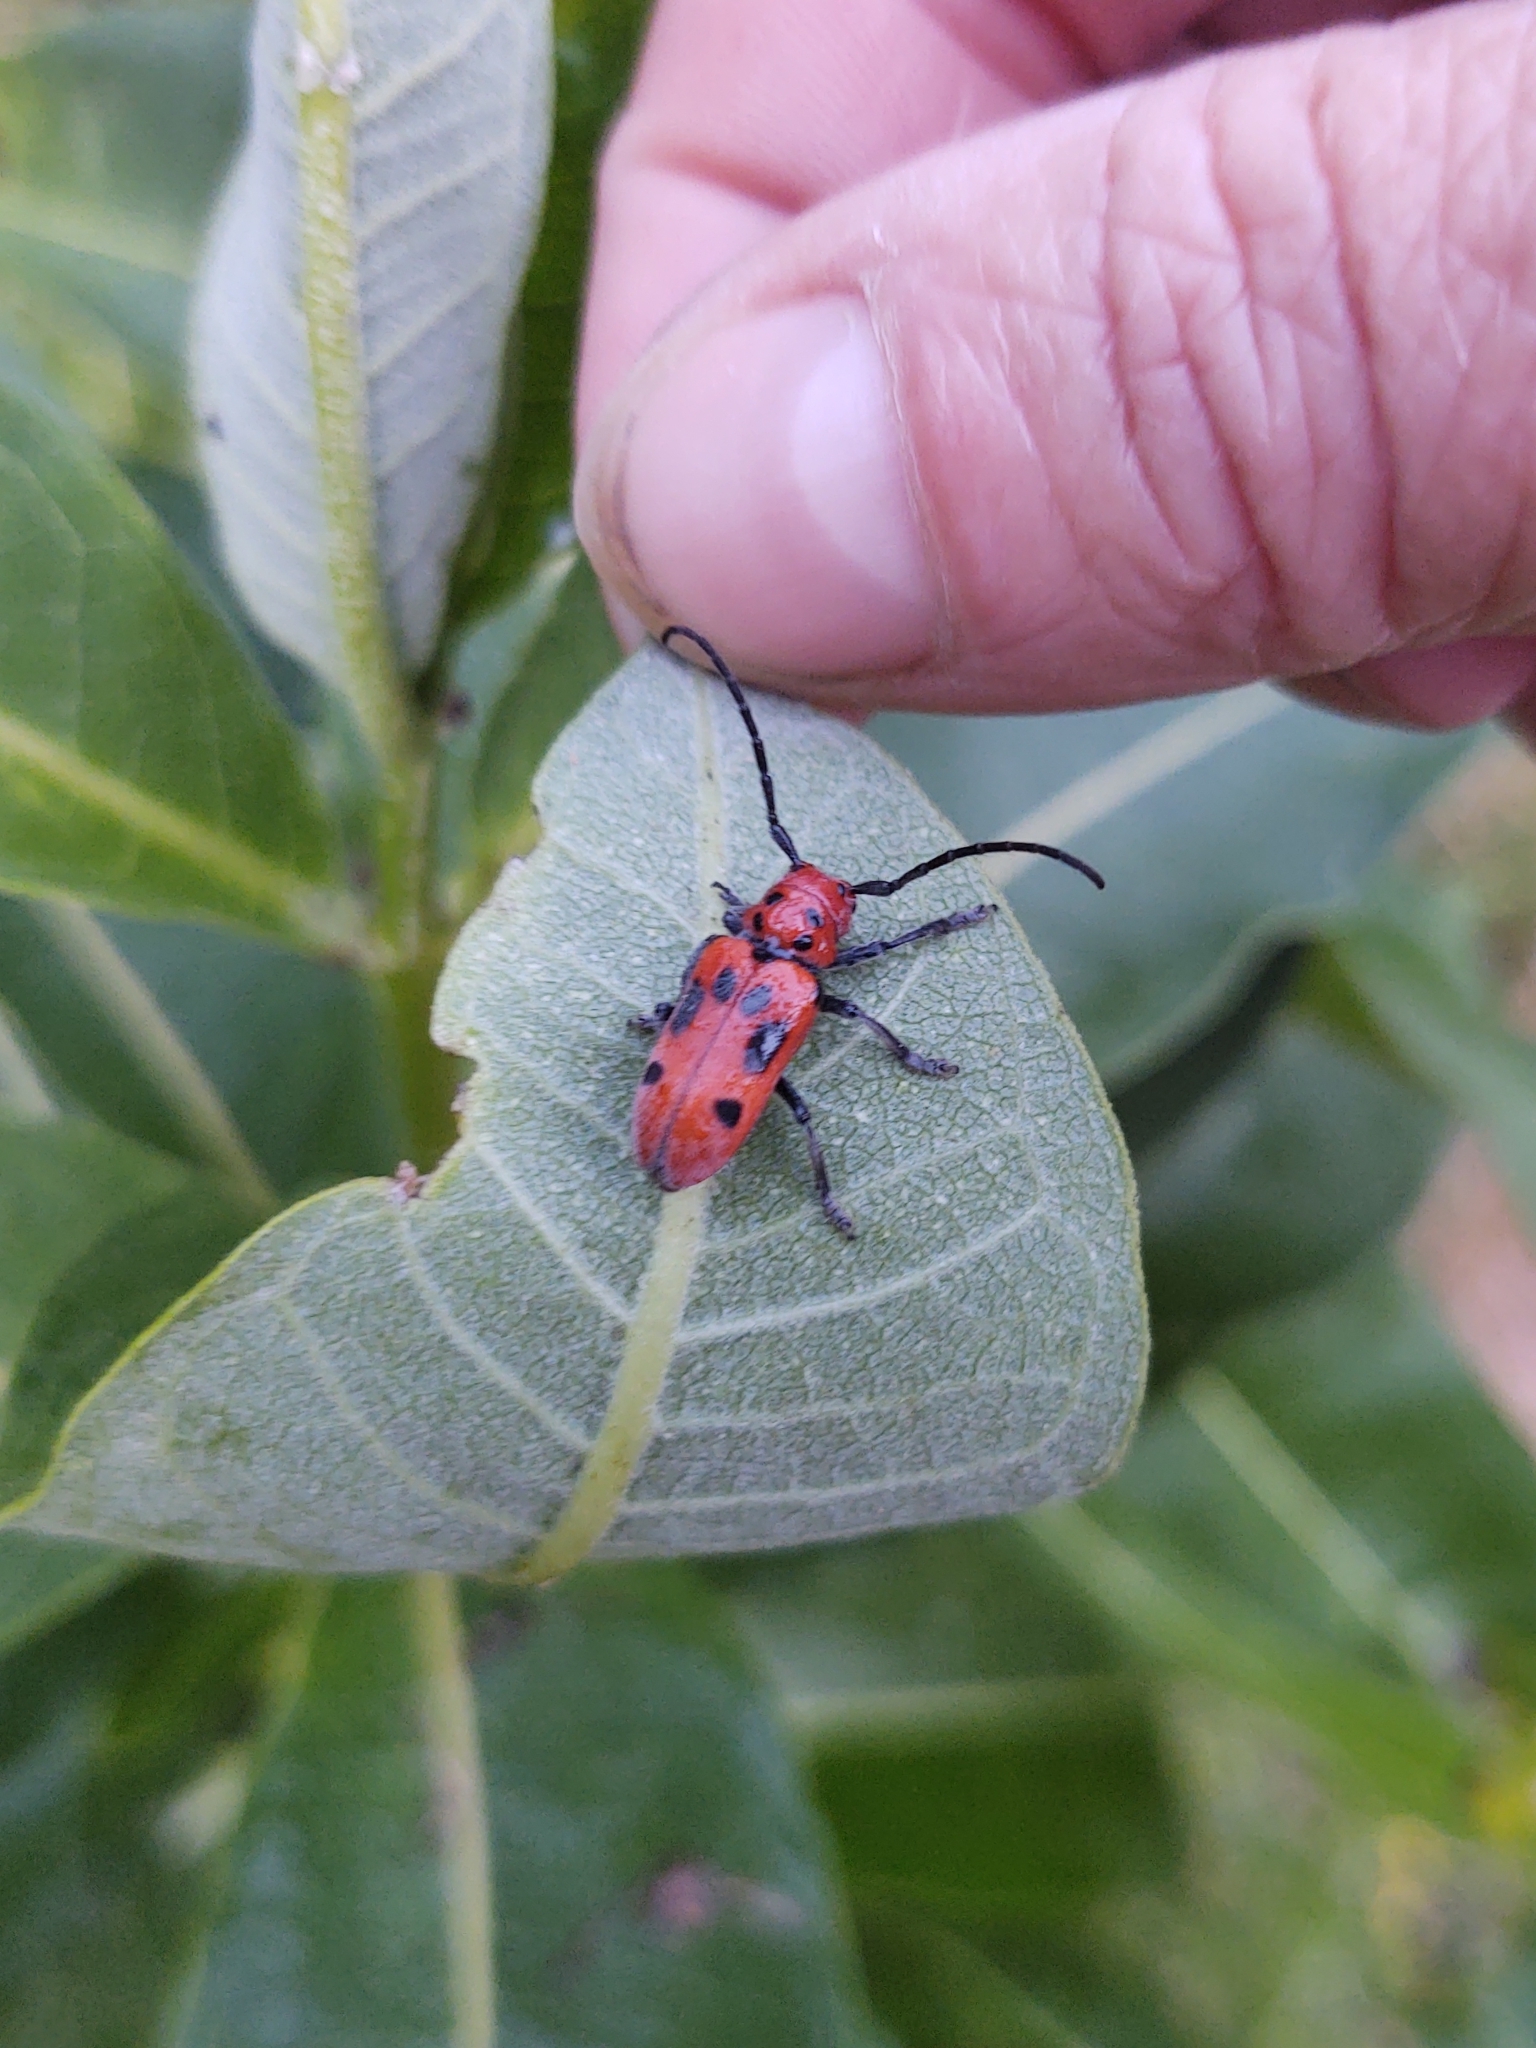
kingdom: Animalia
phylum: Arthropoda
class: Insecta
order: Coleoptera
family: Cerambycidae
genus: Tetraopes
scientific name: Tetraopes tetrophthalmus
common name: Red milkweed beetle
